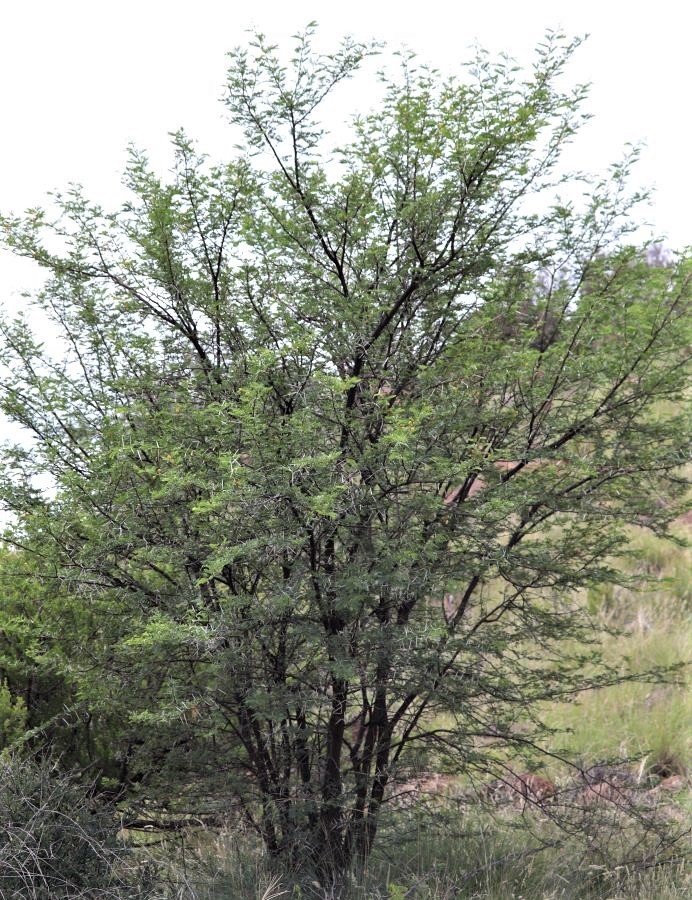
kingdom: Plantae
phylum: Tracheophyta
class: Magnoliopsida
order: Fabales
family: Fabaceae
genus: Vachellia
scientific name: Vachellia karroo
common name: Sweet thorn
